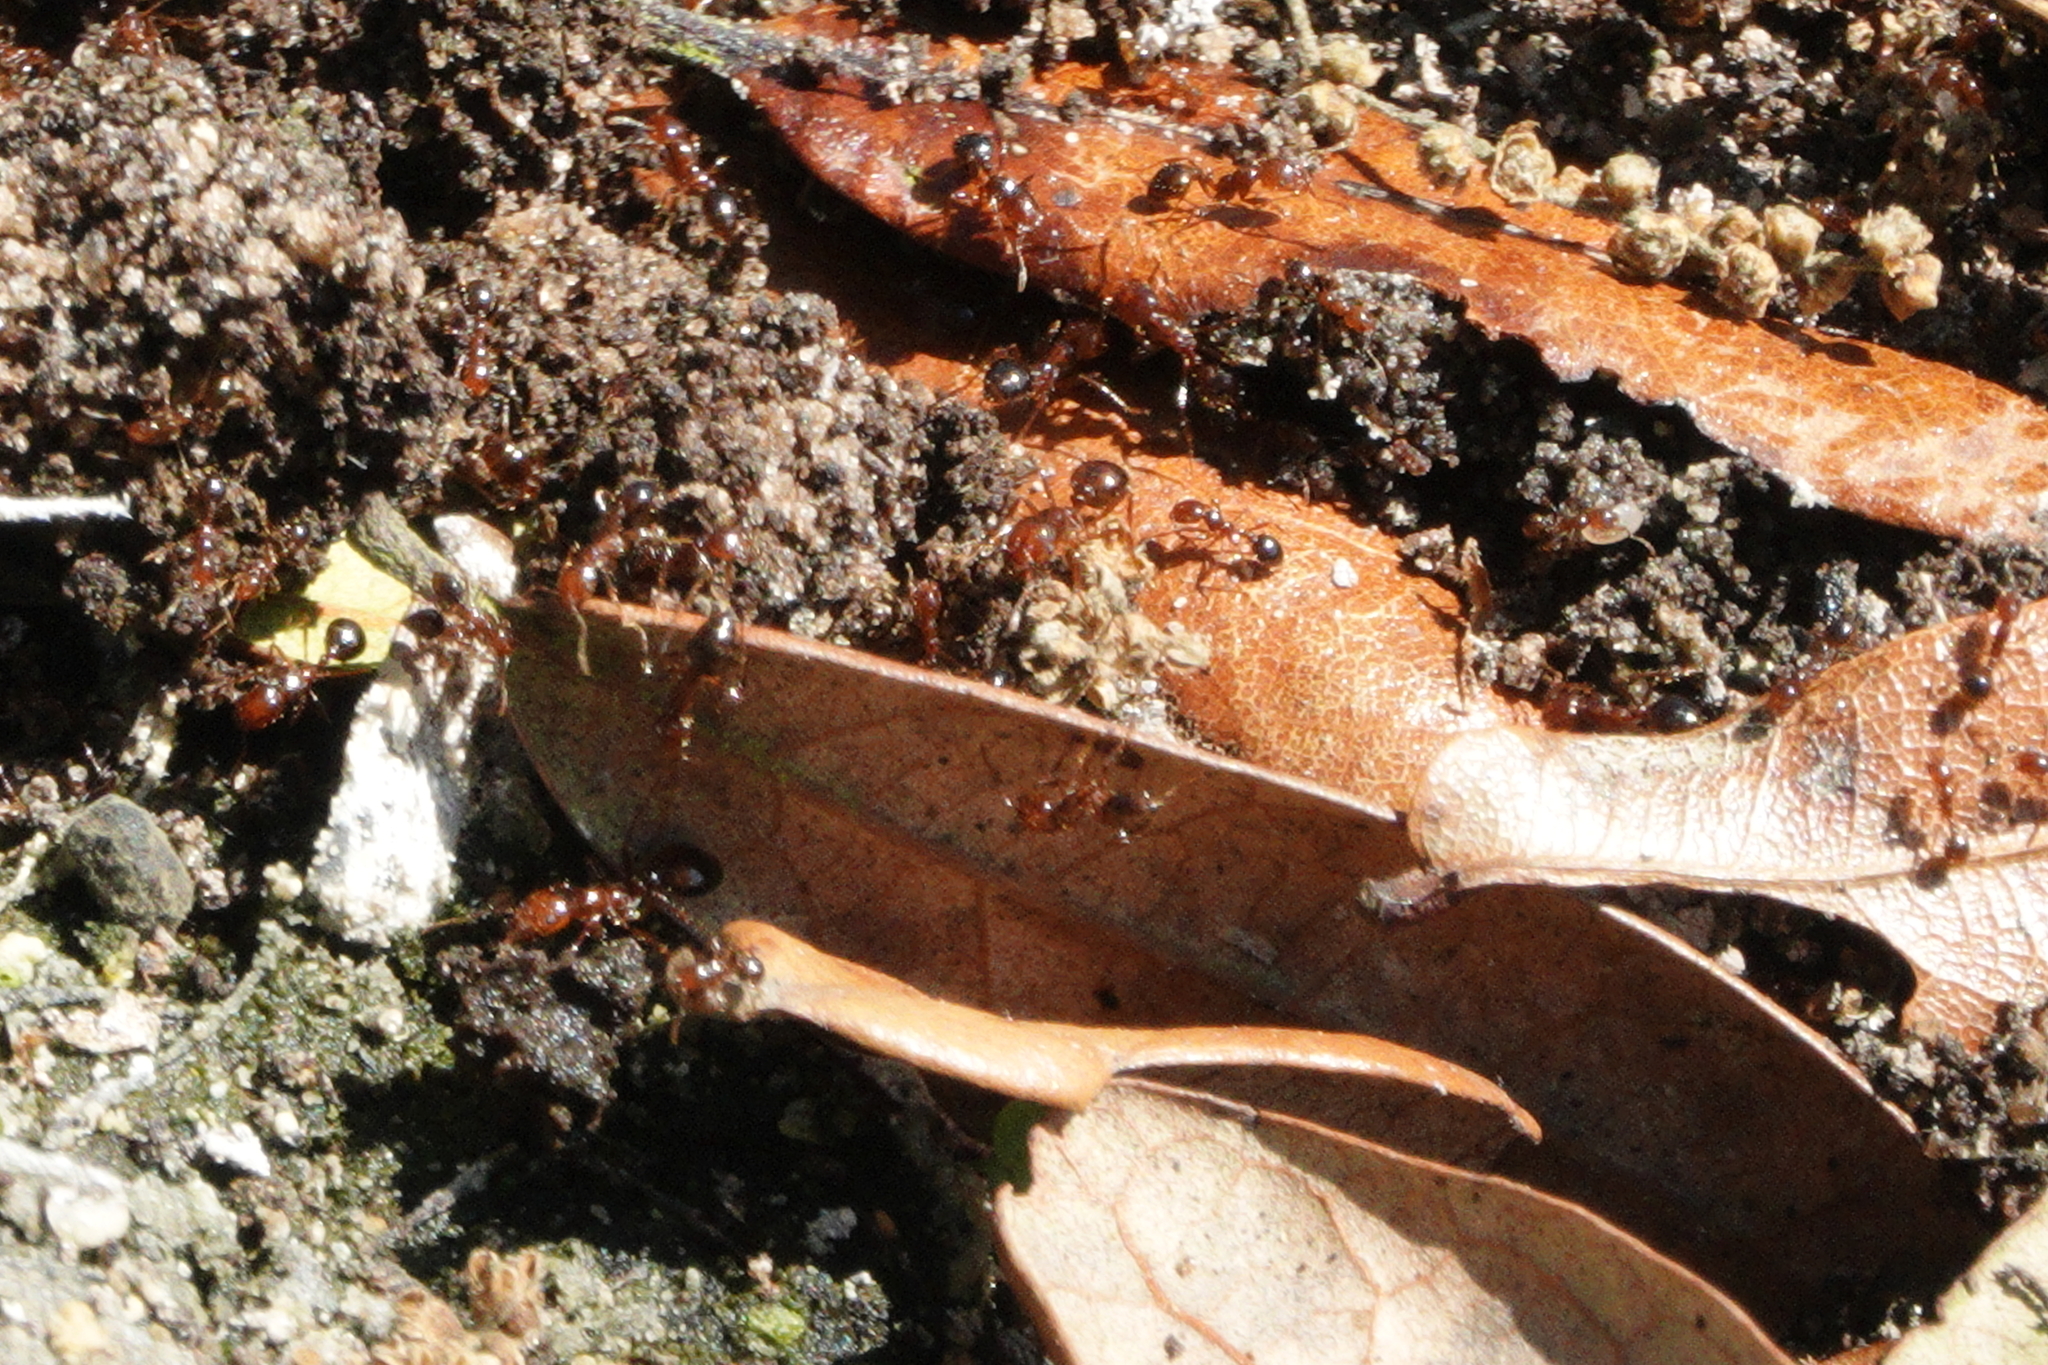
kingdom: Animalia
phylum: Arthropoda
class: Insecta
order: Hymenoptera
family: Formicidae
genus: Solenopsis
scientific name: Solenopsis invicta
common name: Red imported fire ant
